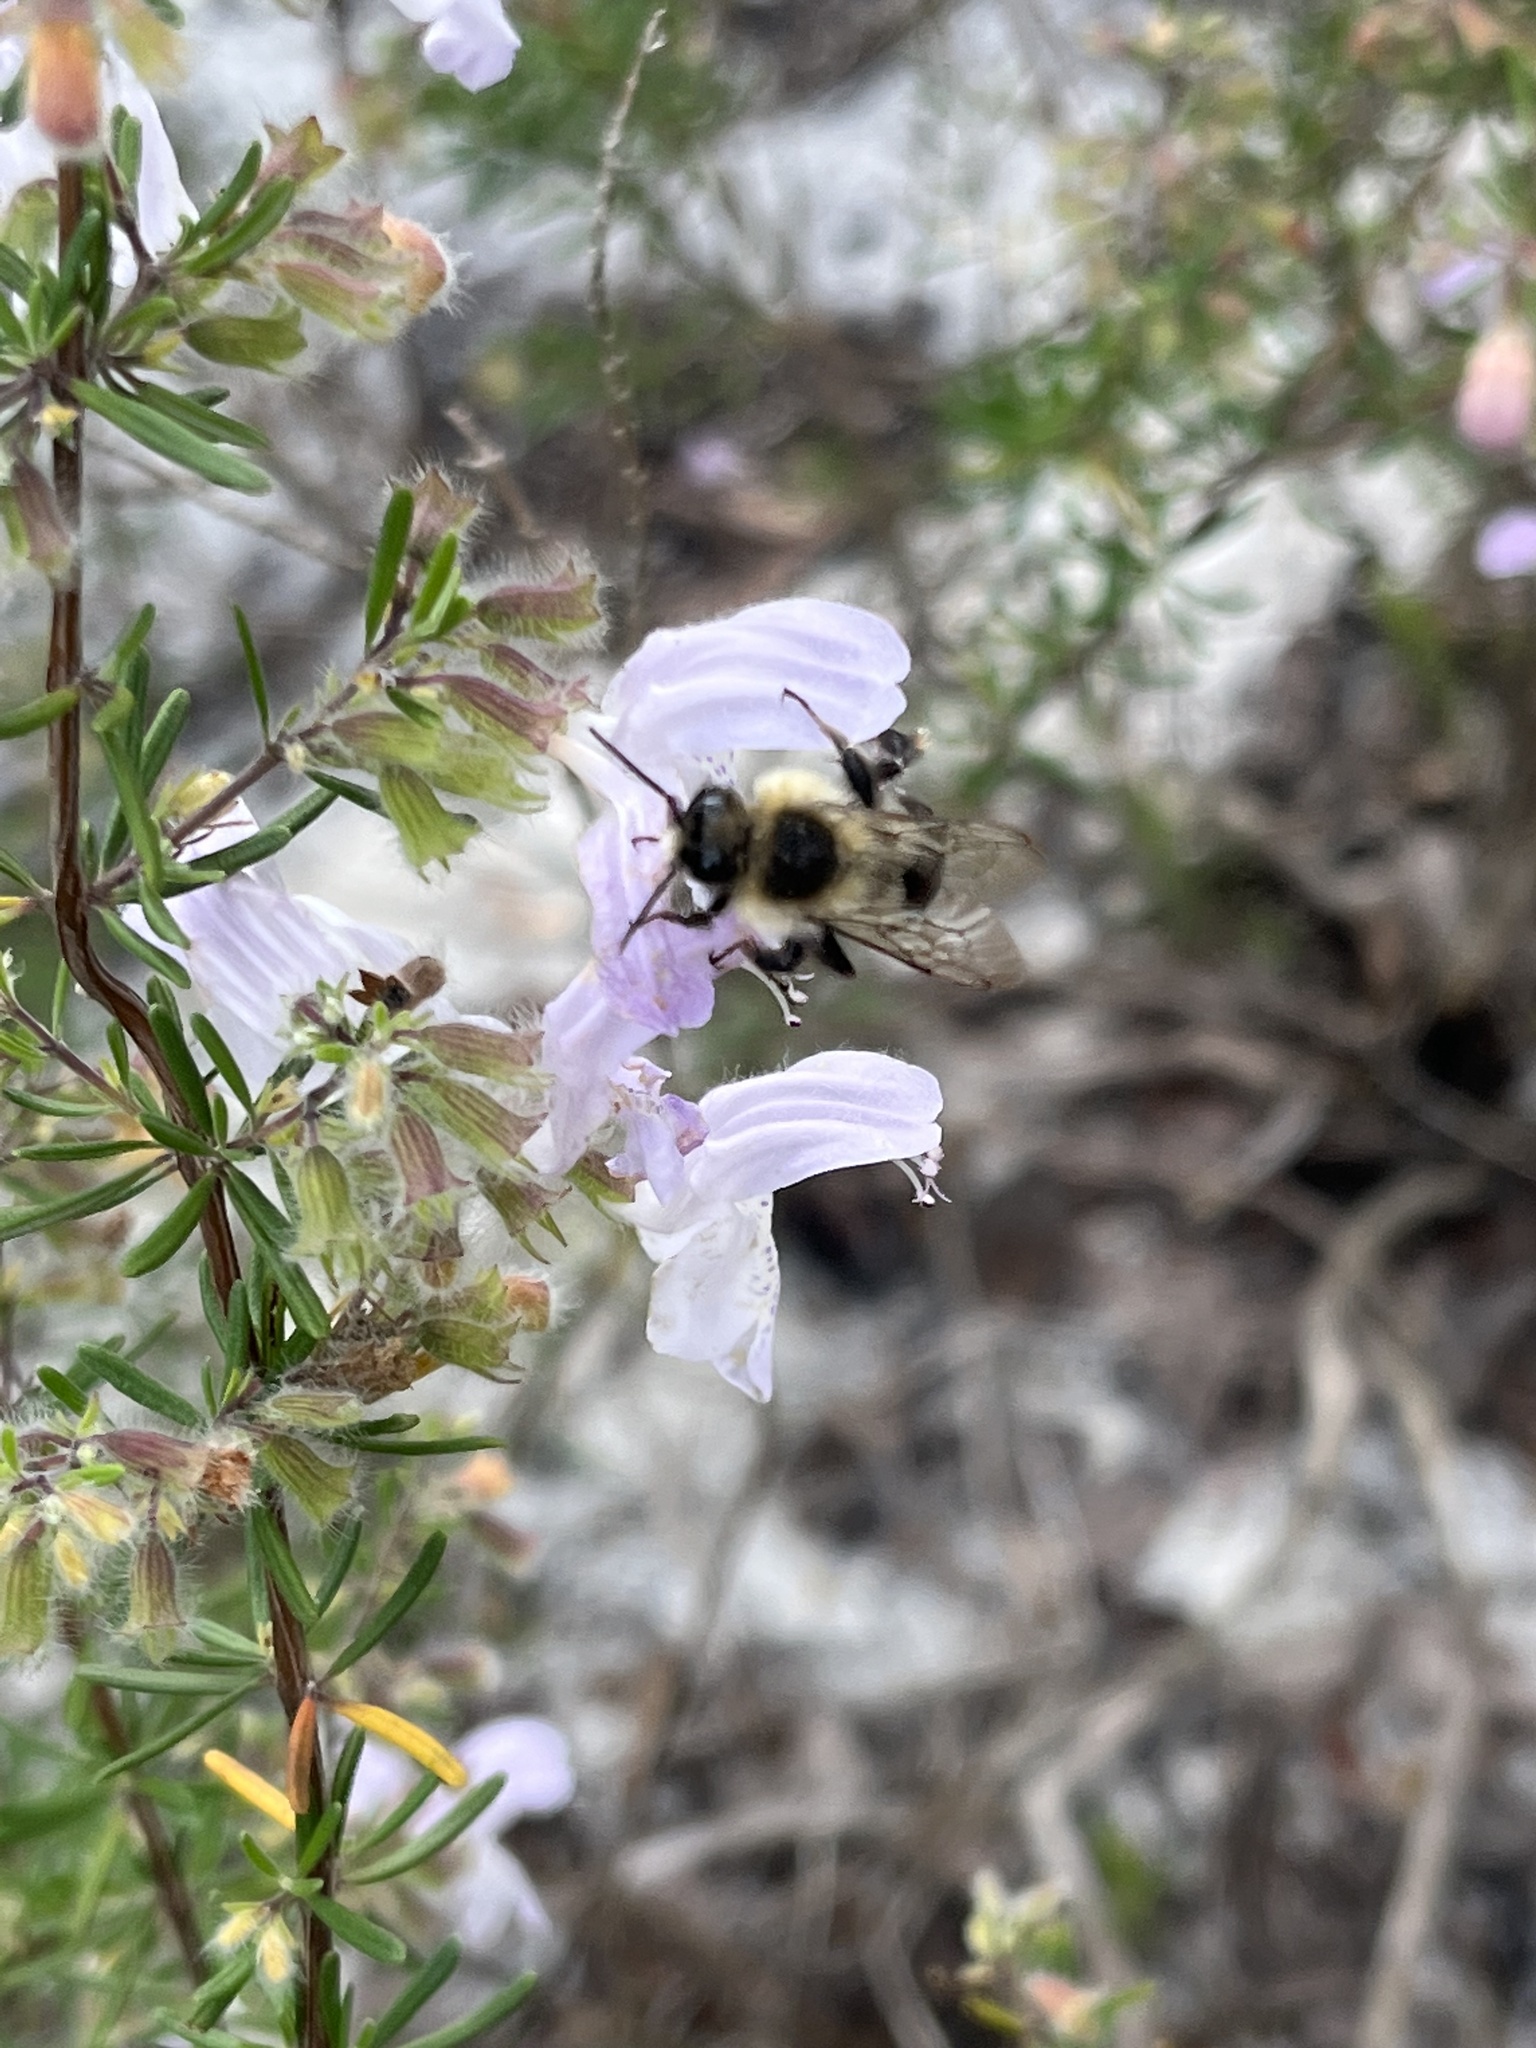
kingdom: Animalia
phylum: Arthropoda
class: Insecta
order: Hymenoptera
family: Apidae
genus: Bombus
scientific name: Bombus impatiens
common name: Common eastern bumble bee
